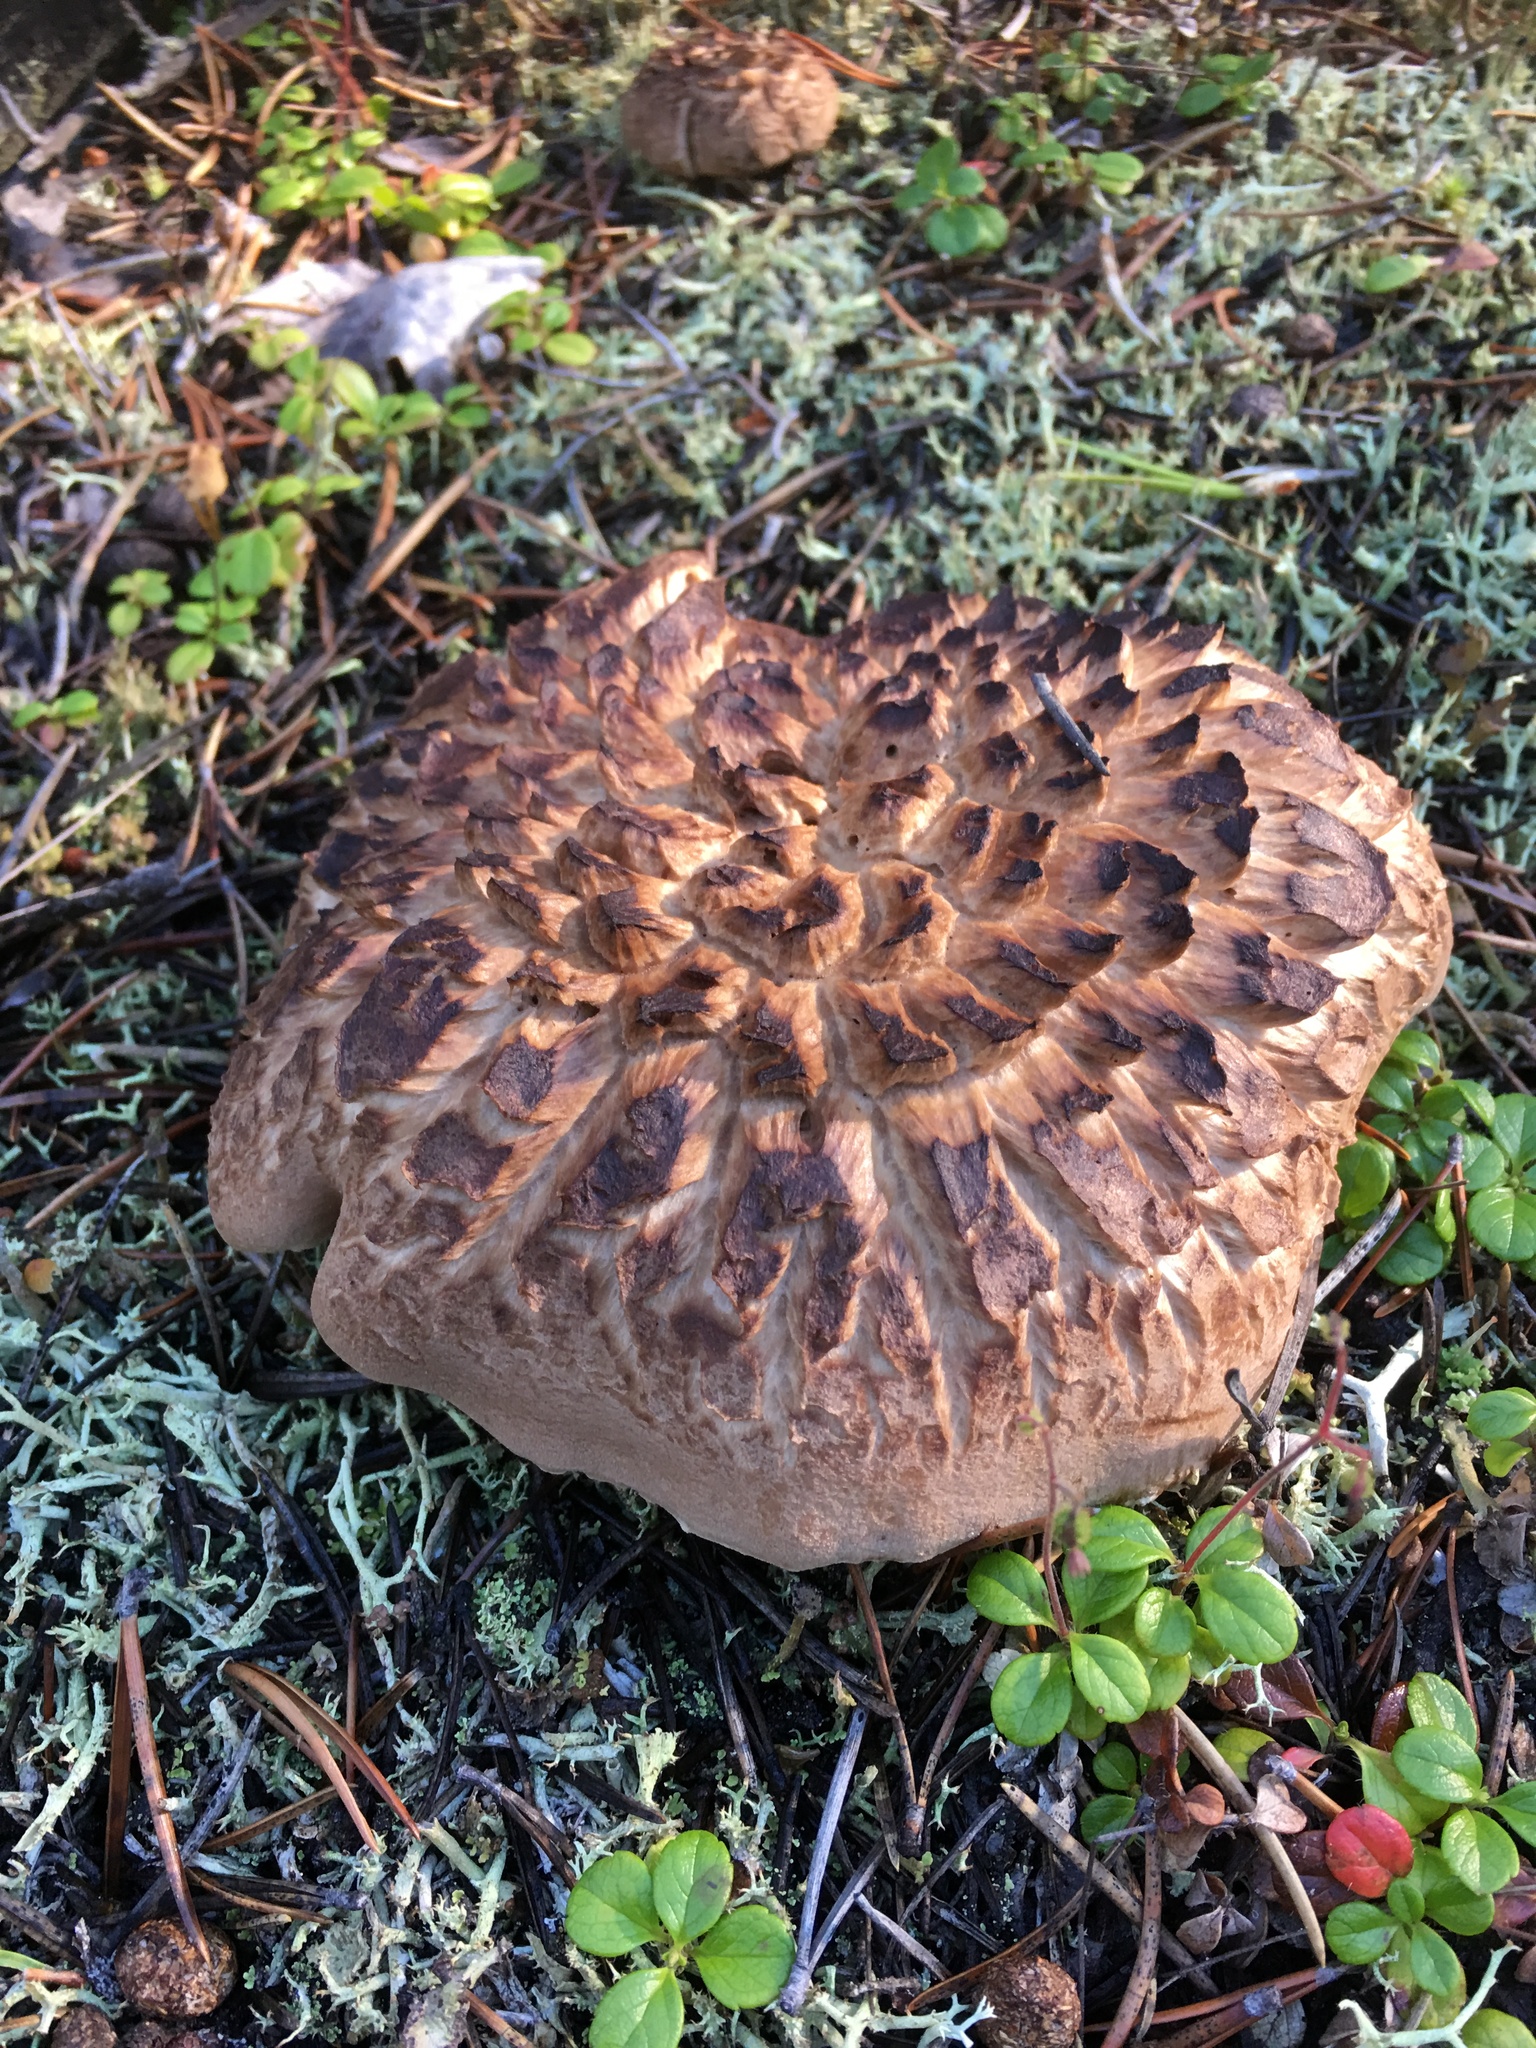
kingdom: Fungi
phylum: Basidiomycota
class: Agaricomycetes
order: Thelephorales
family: Bankeraceae
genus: Sarcodon
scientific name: Sarcodon imbricatus
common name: Shingled hedgehog
